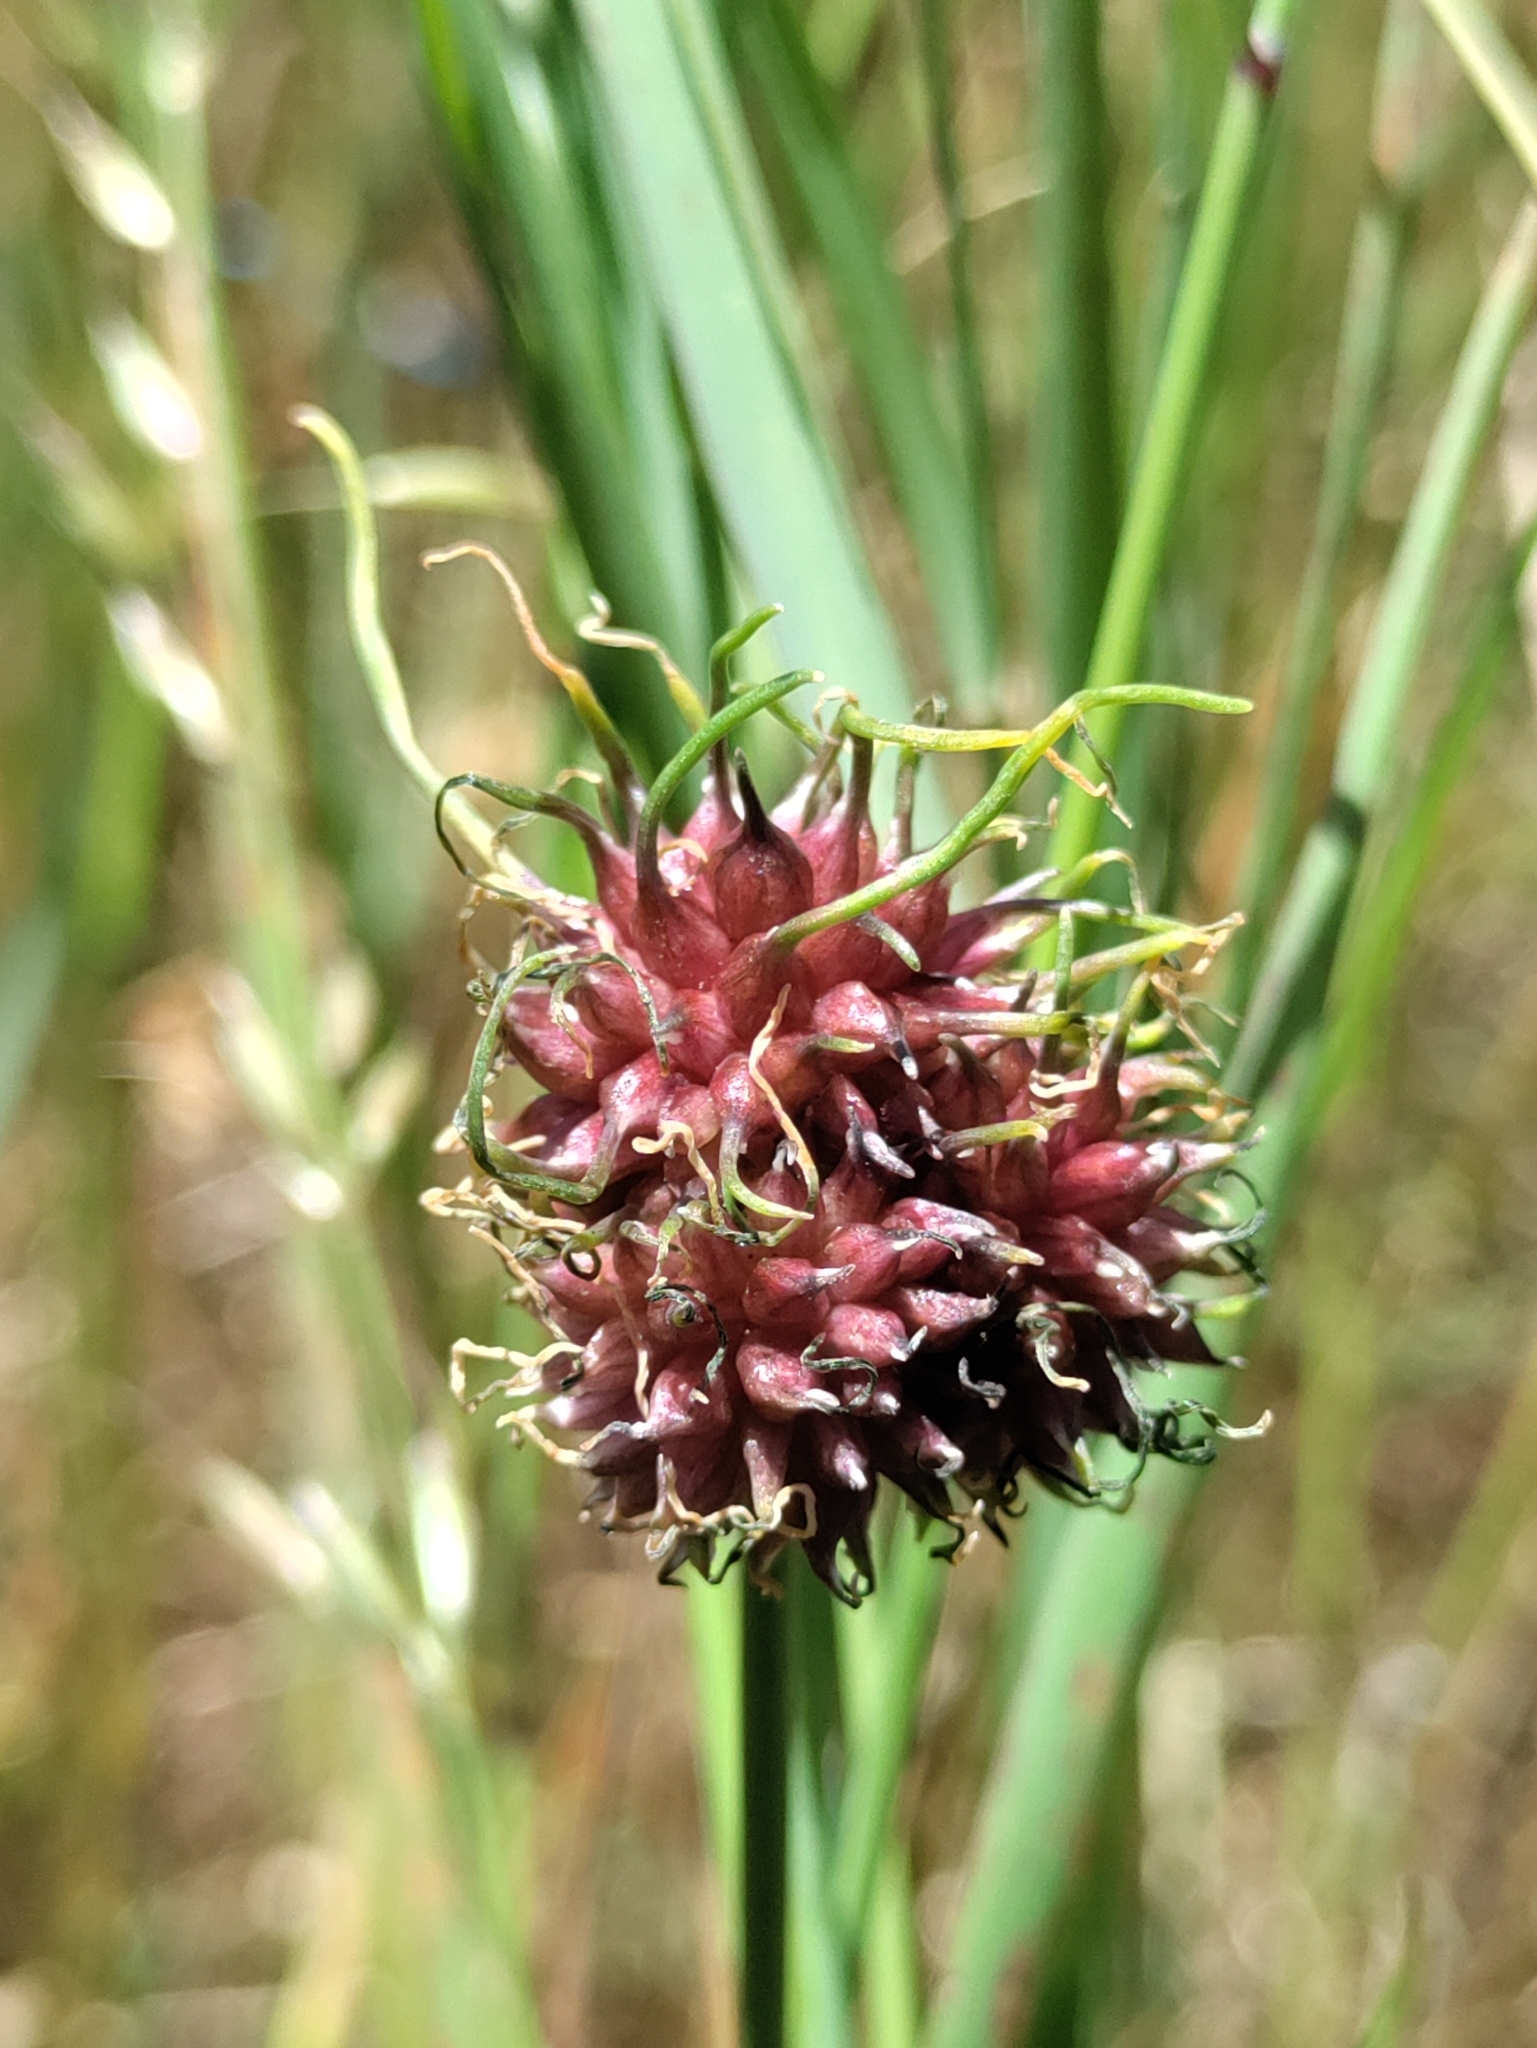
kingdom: Plantae
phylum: Tracheophyta
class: Liliopsida
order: Asparagales
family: Amaryllidaceae
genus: Allium
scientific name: Allium vineale
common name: Crow garlic
